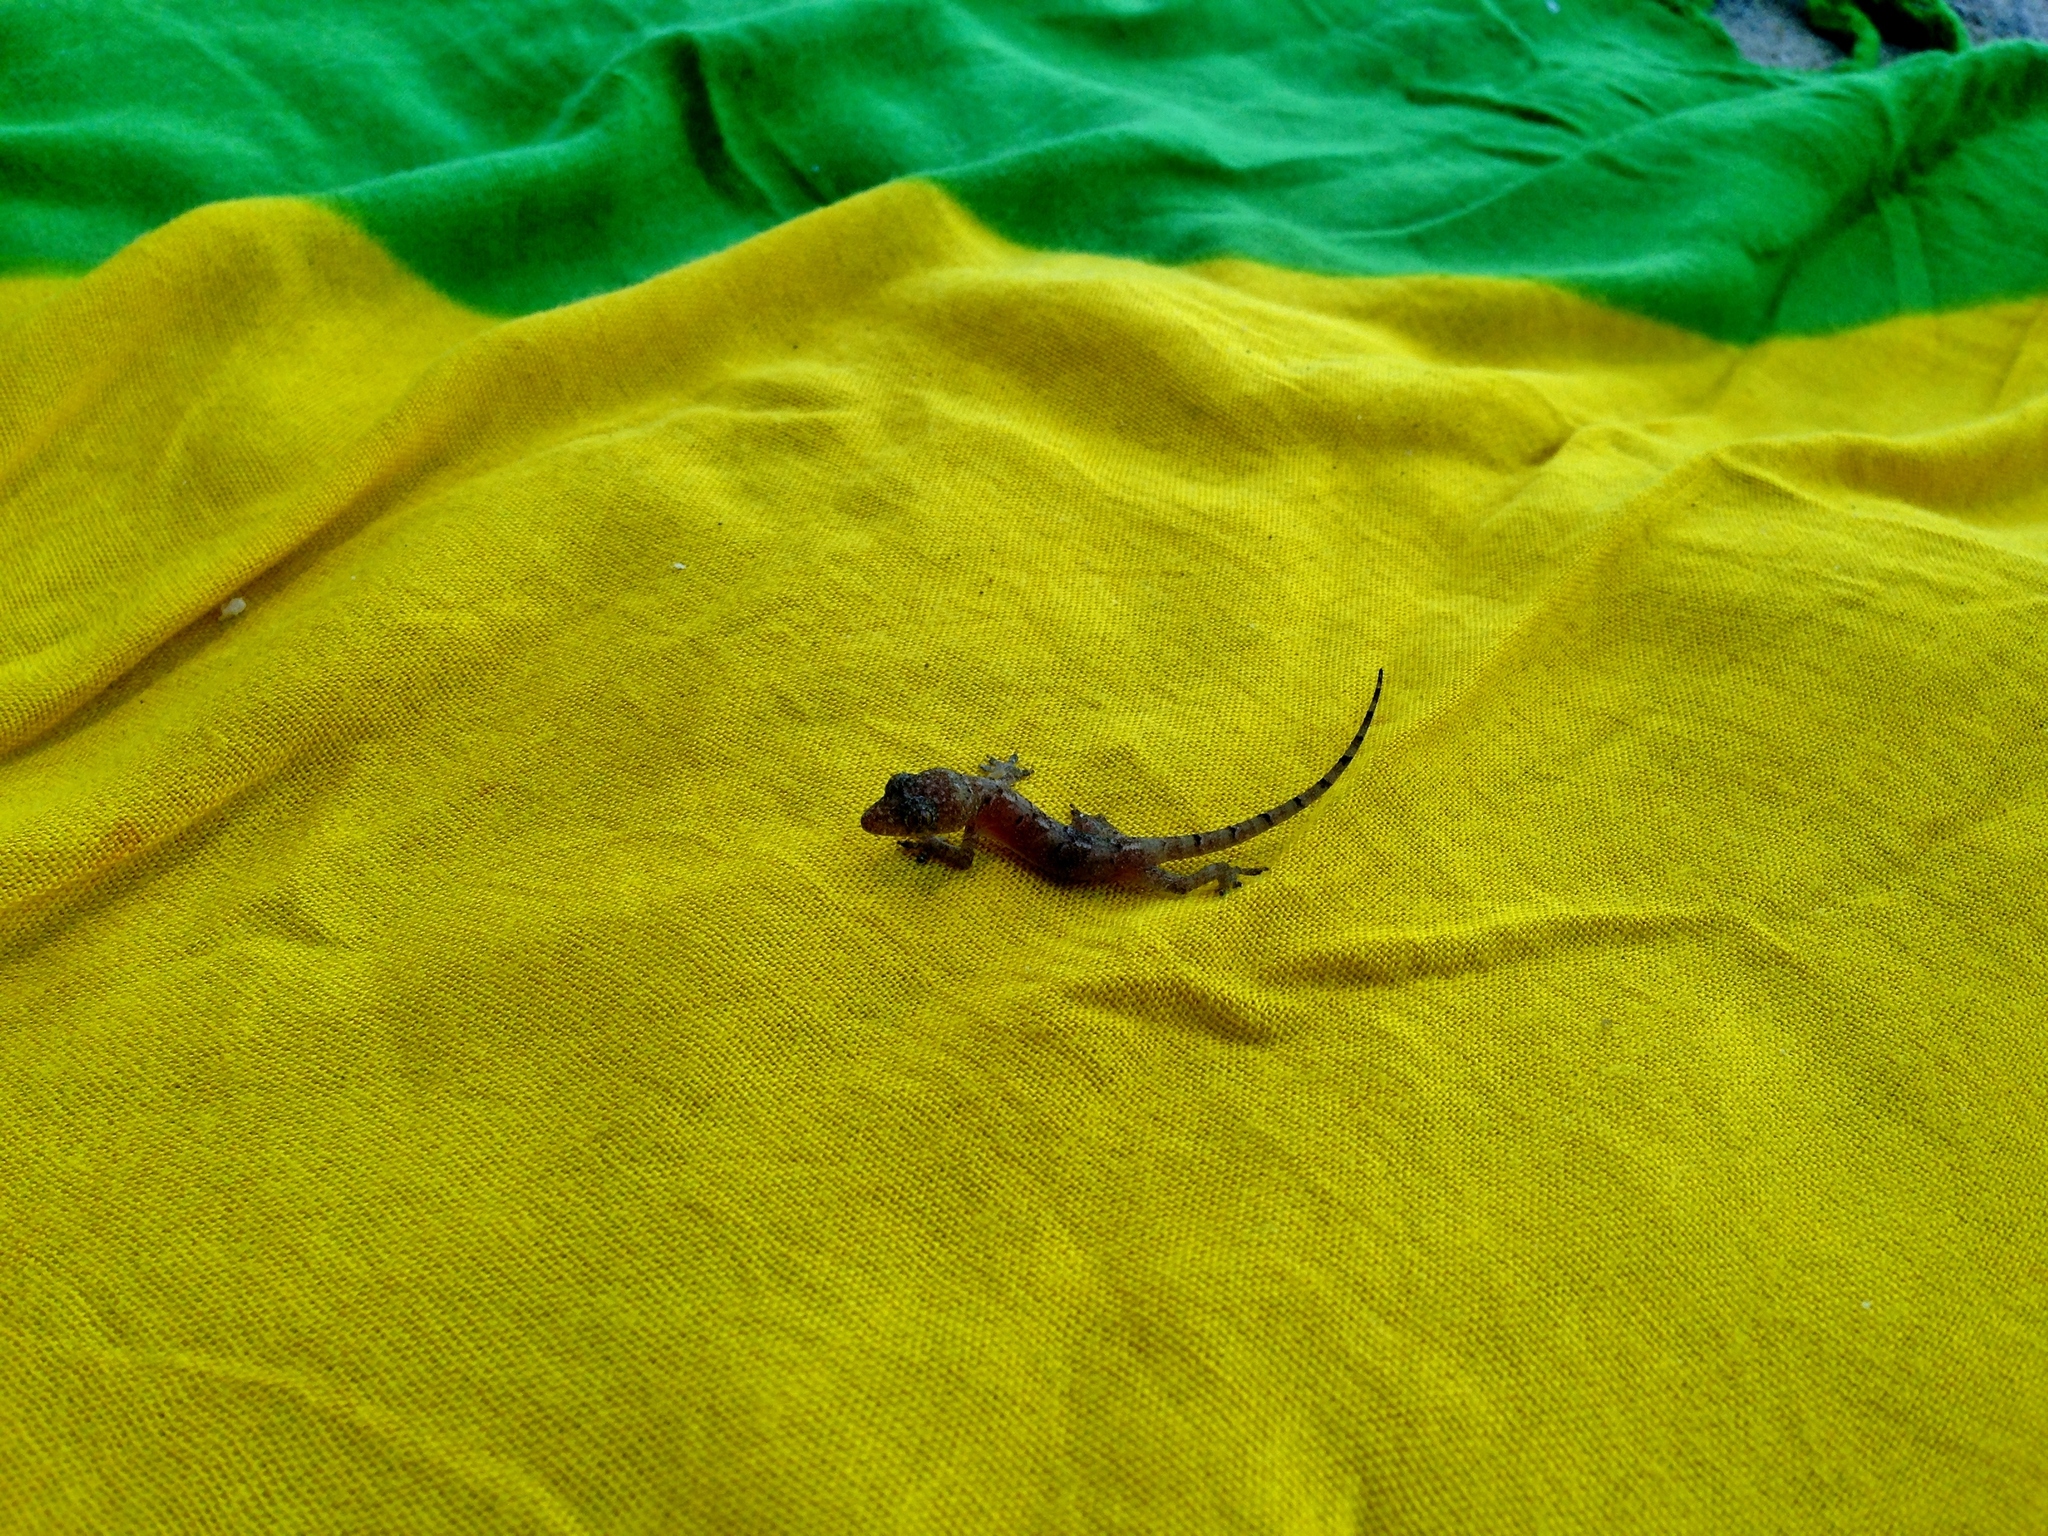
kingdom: Animalia
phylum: Chordata
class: Squamata
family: Gekkonidae
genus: Hemidactylus
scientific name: Hemidactylus mabouia
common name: House gecko
